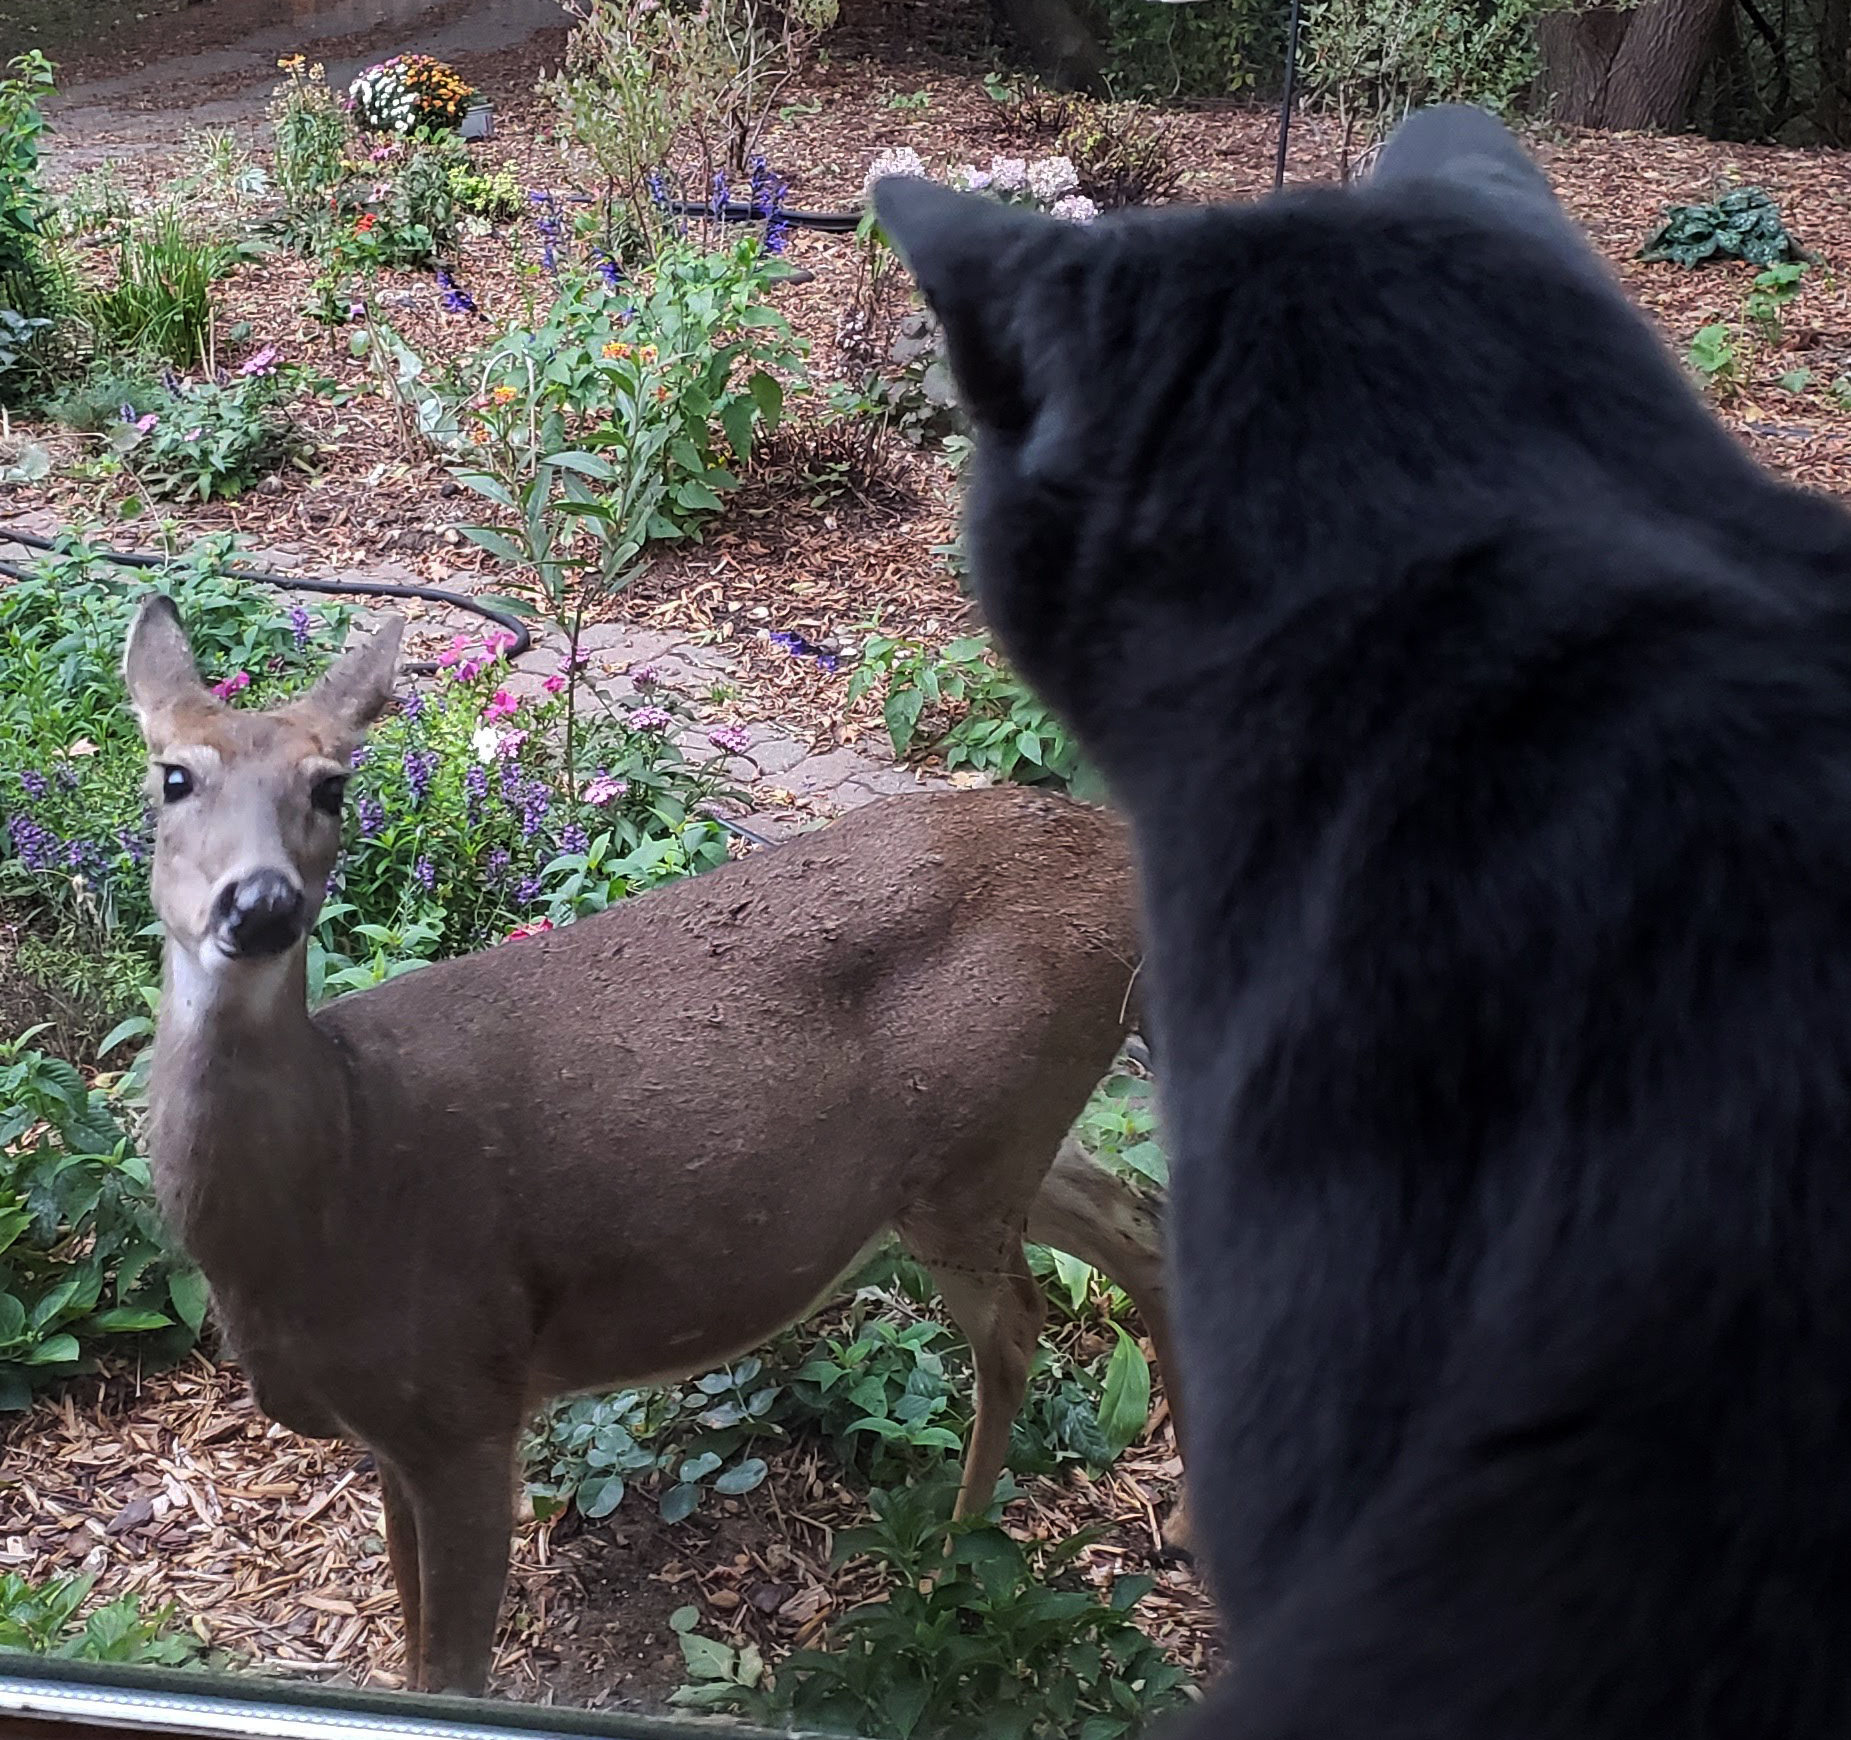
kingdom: Animalia
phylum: Chordata
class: Mammalia
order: Artiodactyla
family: Cervidae
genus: Odocoileus
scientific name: Odocoileus virginianus
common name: White-tailed deer
